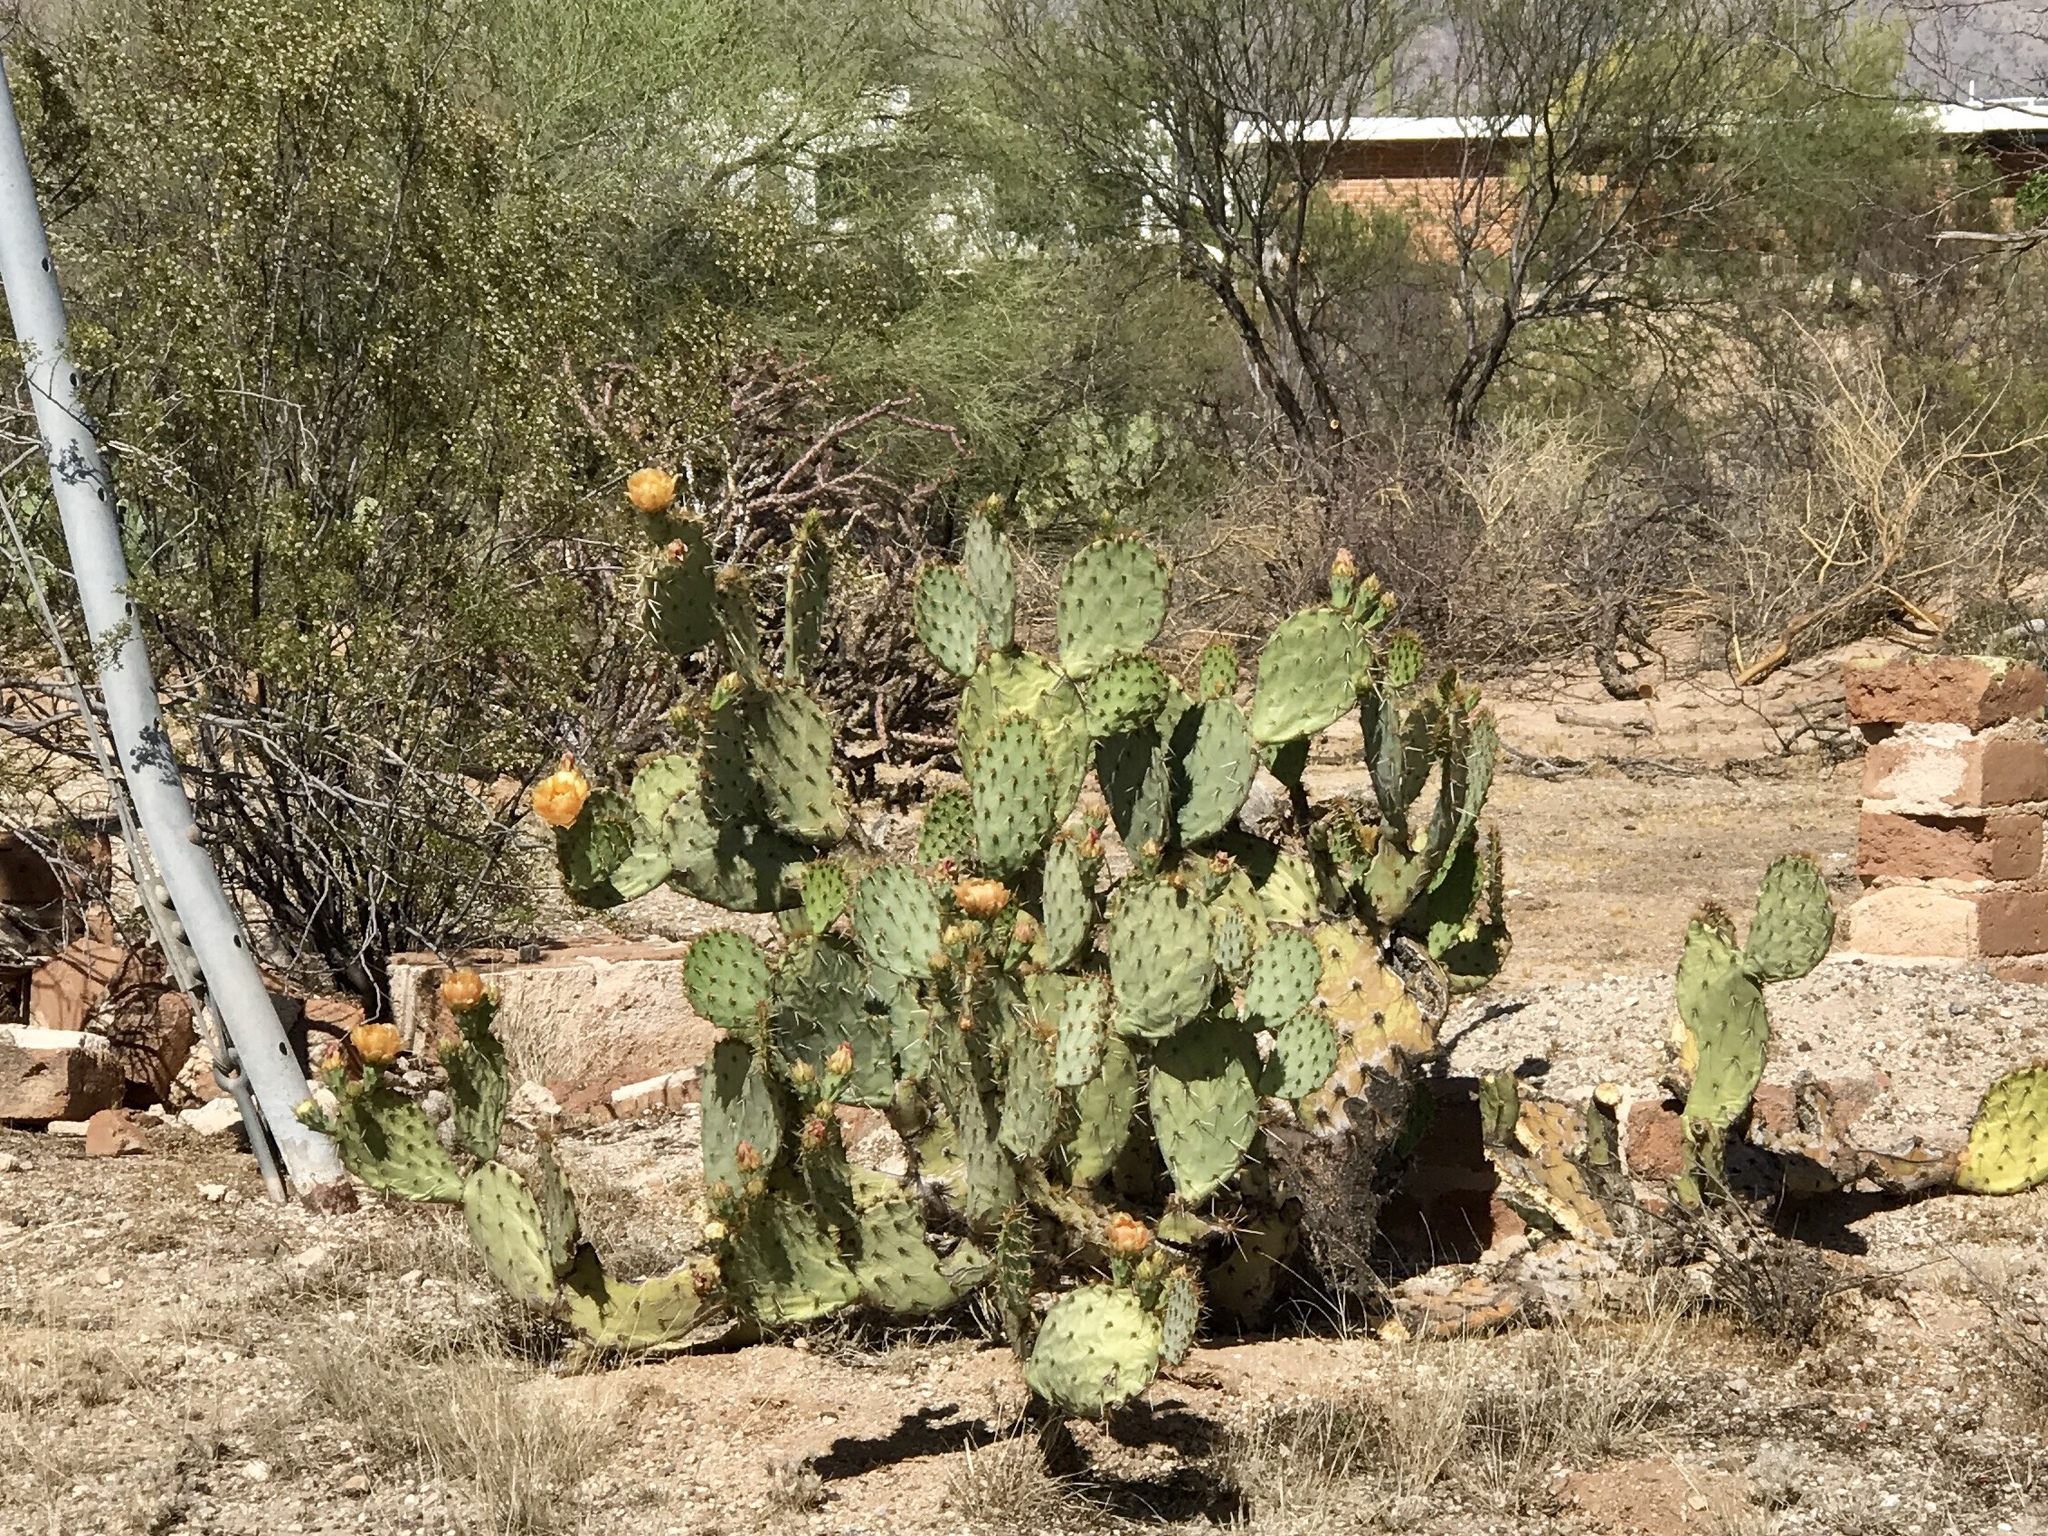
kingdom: Plantae
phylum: Tracheophyta
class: Magnoliopsida
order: Caryophyllales
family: Cactaceae
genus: Opuntia
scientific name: Opuntia engelmannii
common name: Cactus-apple
